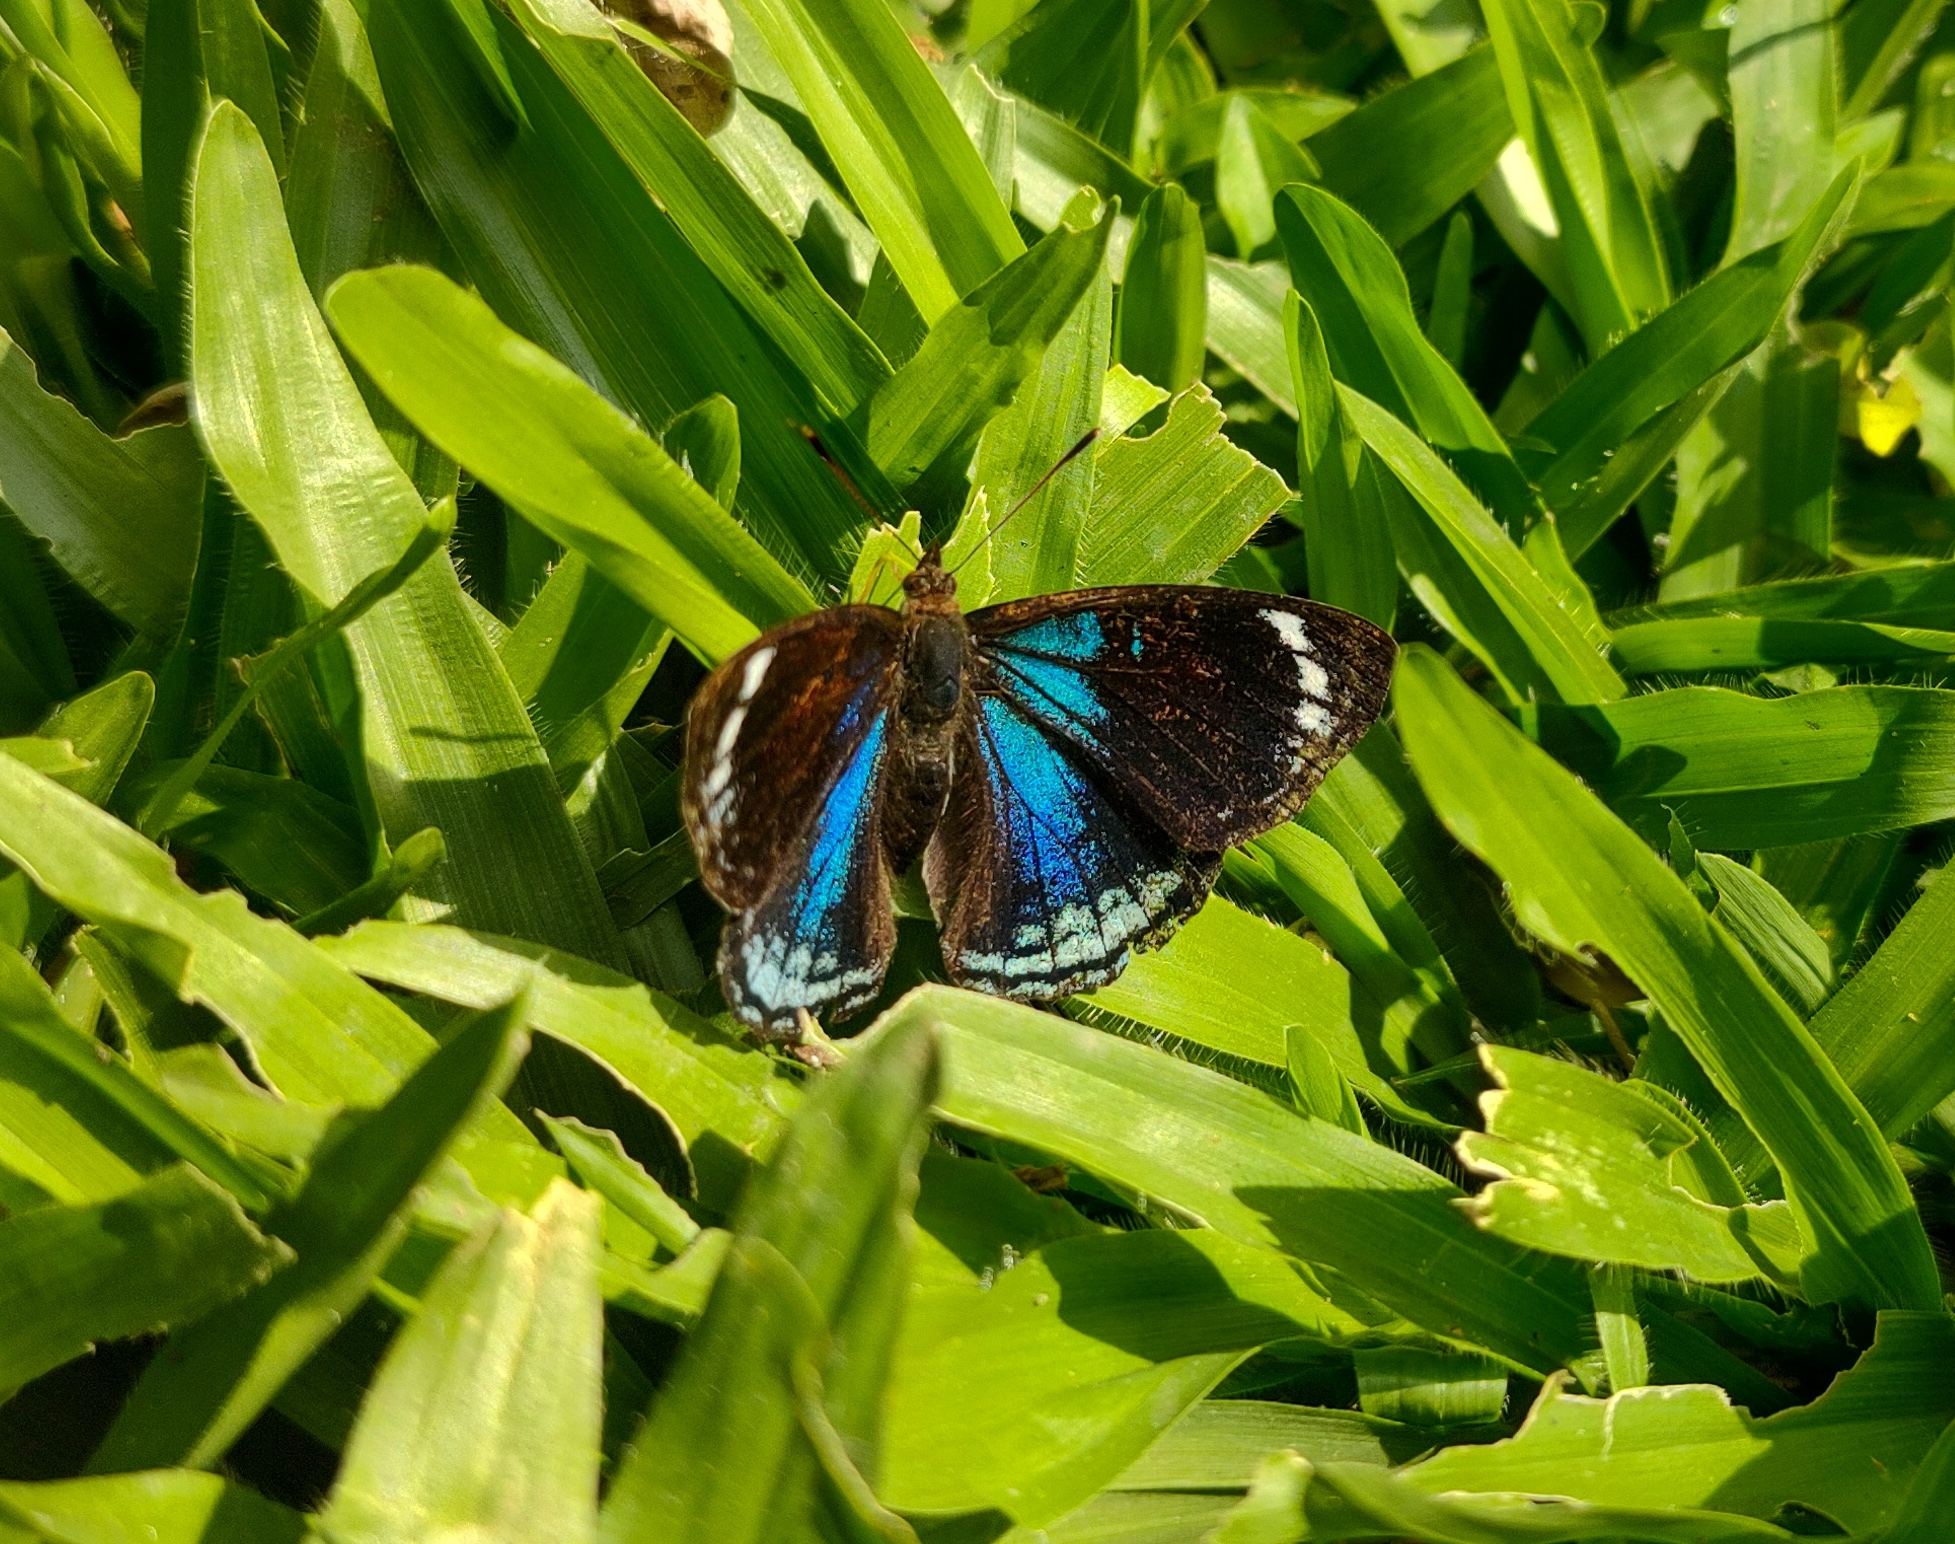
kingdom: Animalia
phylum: Arthropoda
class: Insecta
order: Lepidoptera
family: Nymphalidae
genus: Doxocopa
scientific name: Doxocopa zunilda
